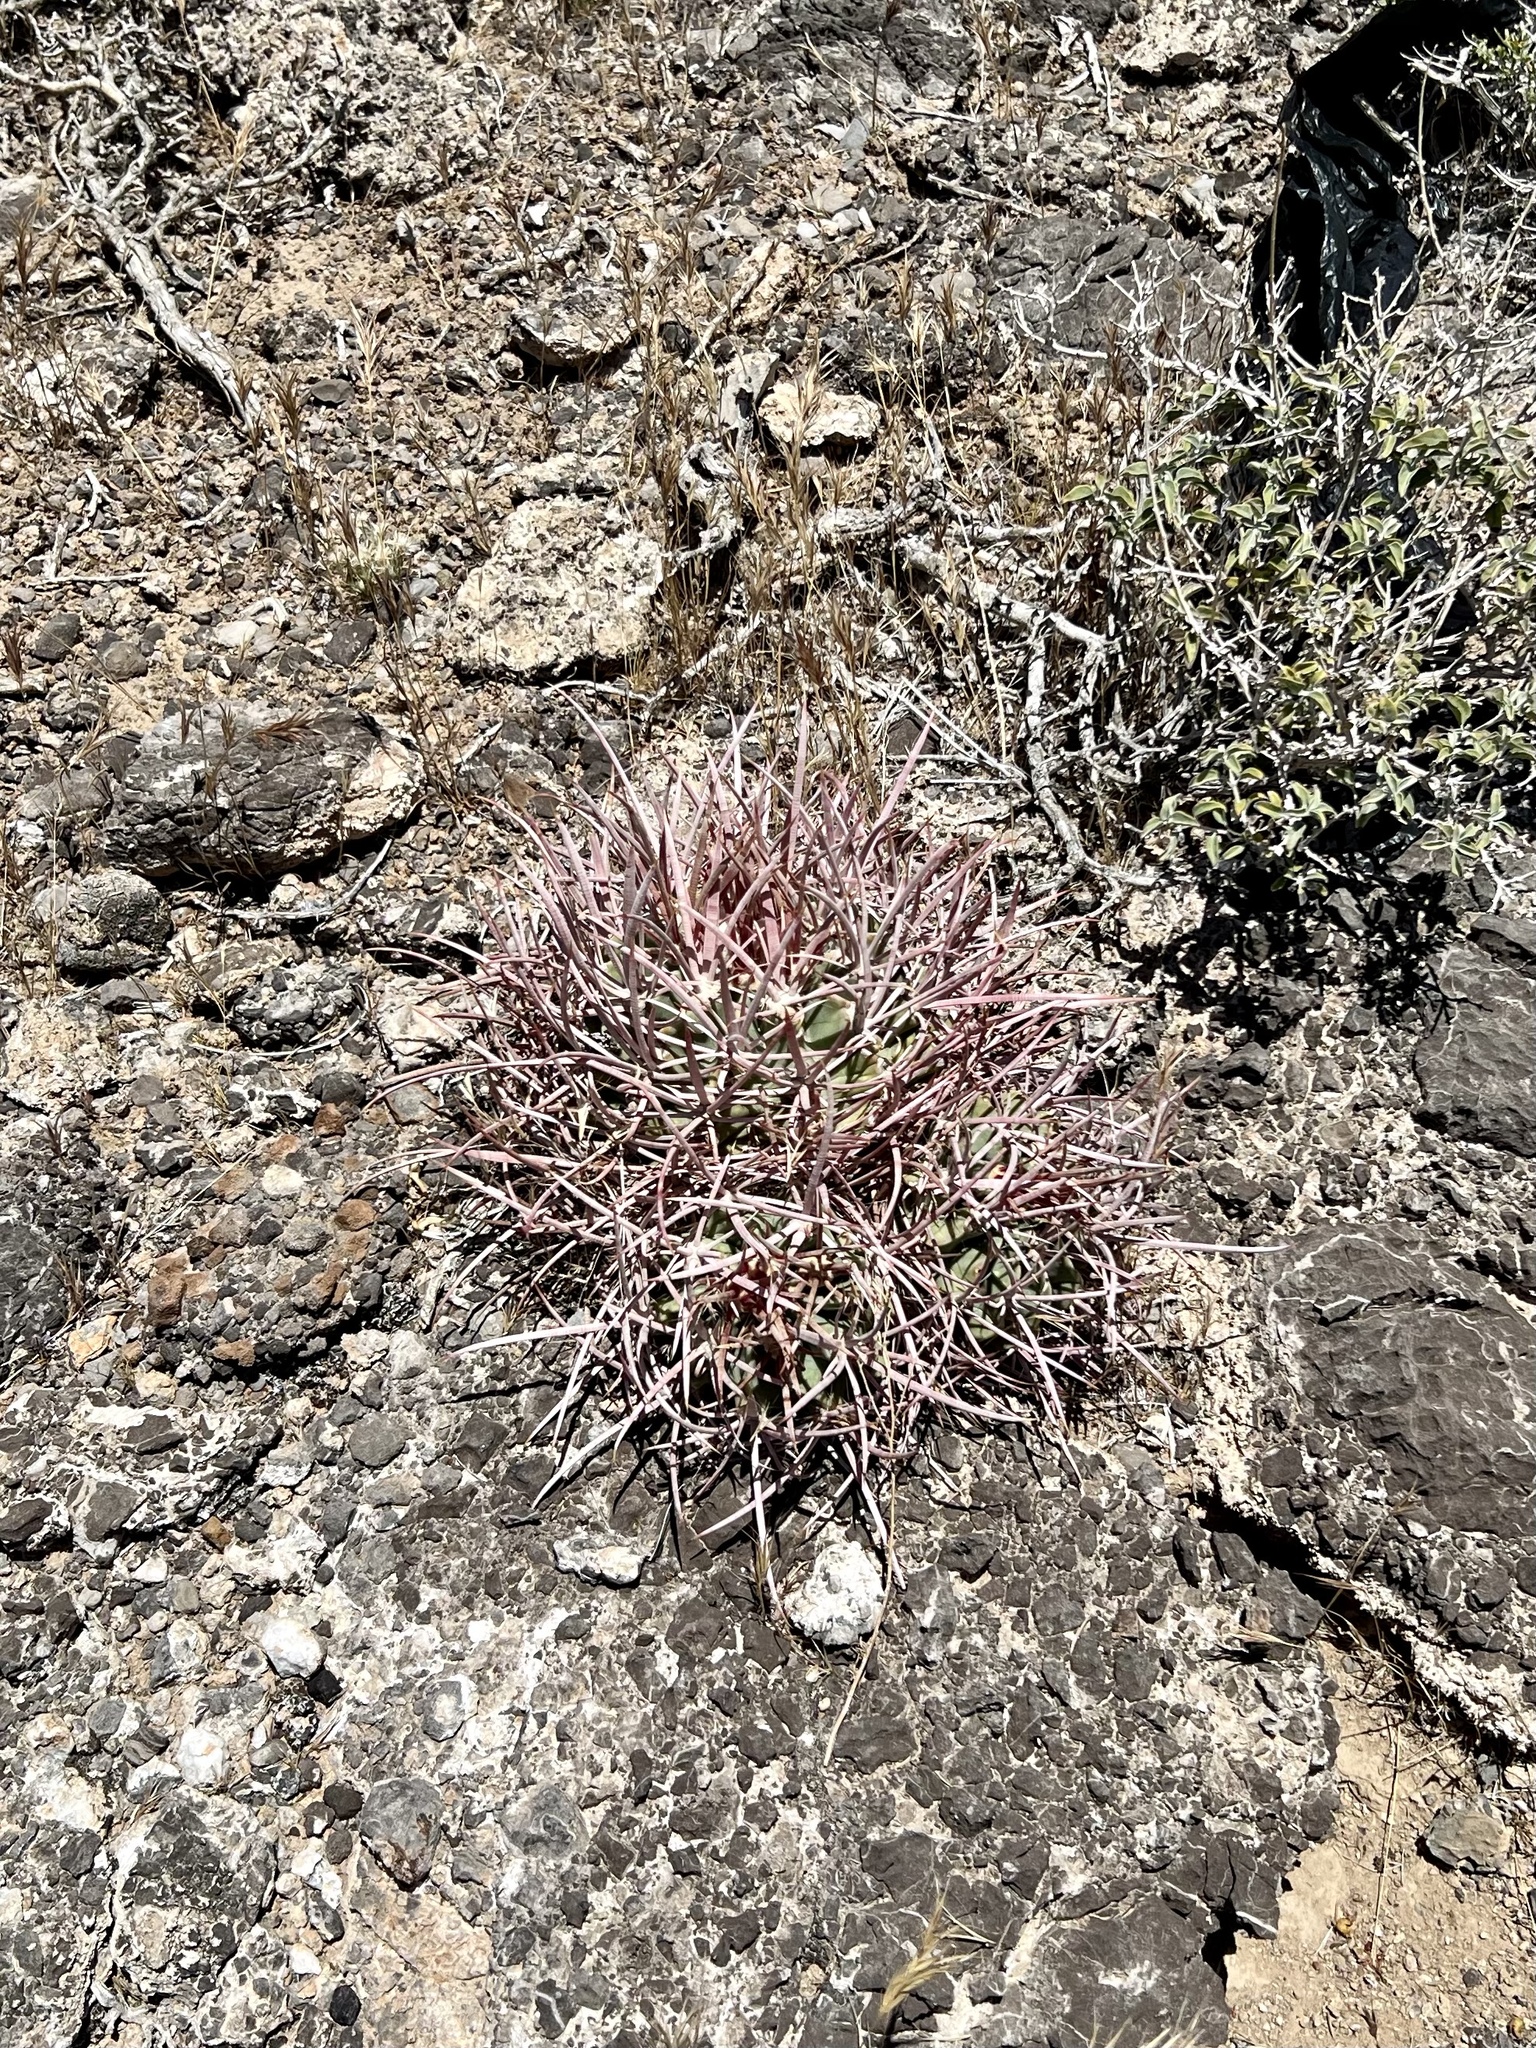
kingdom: Plantae
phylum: Tracheophyta
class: Magnoliopsida
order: Caryophyllales
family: Cactaceae
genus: Echinocactus
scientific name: Echinocactus polycephalus
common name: Cottontop cactus
